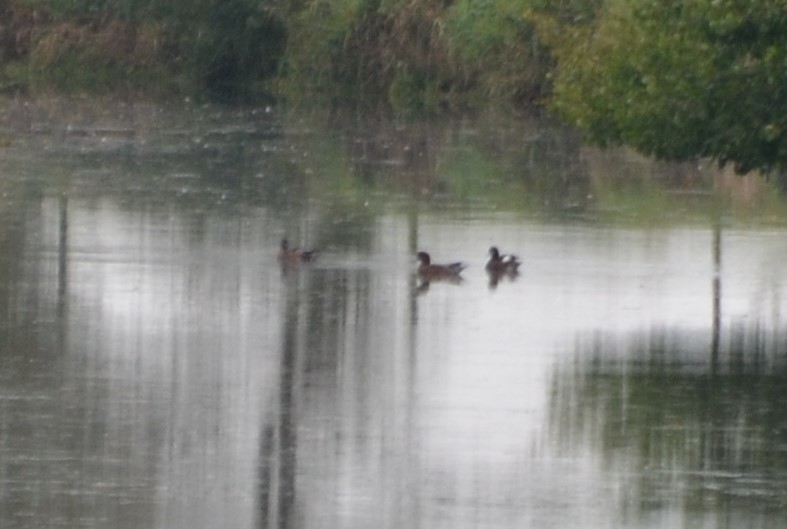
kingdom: Animalia
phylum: Chordata
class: Aves
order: Anseriformes
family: Anatidae
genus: Mareca
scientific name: Mareca penelope
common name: Eurasian wigeon
